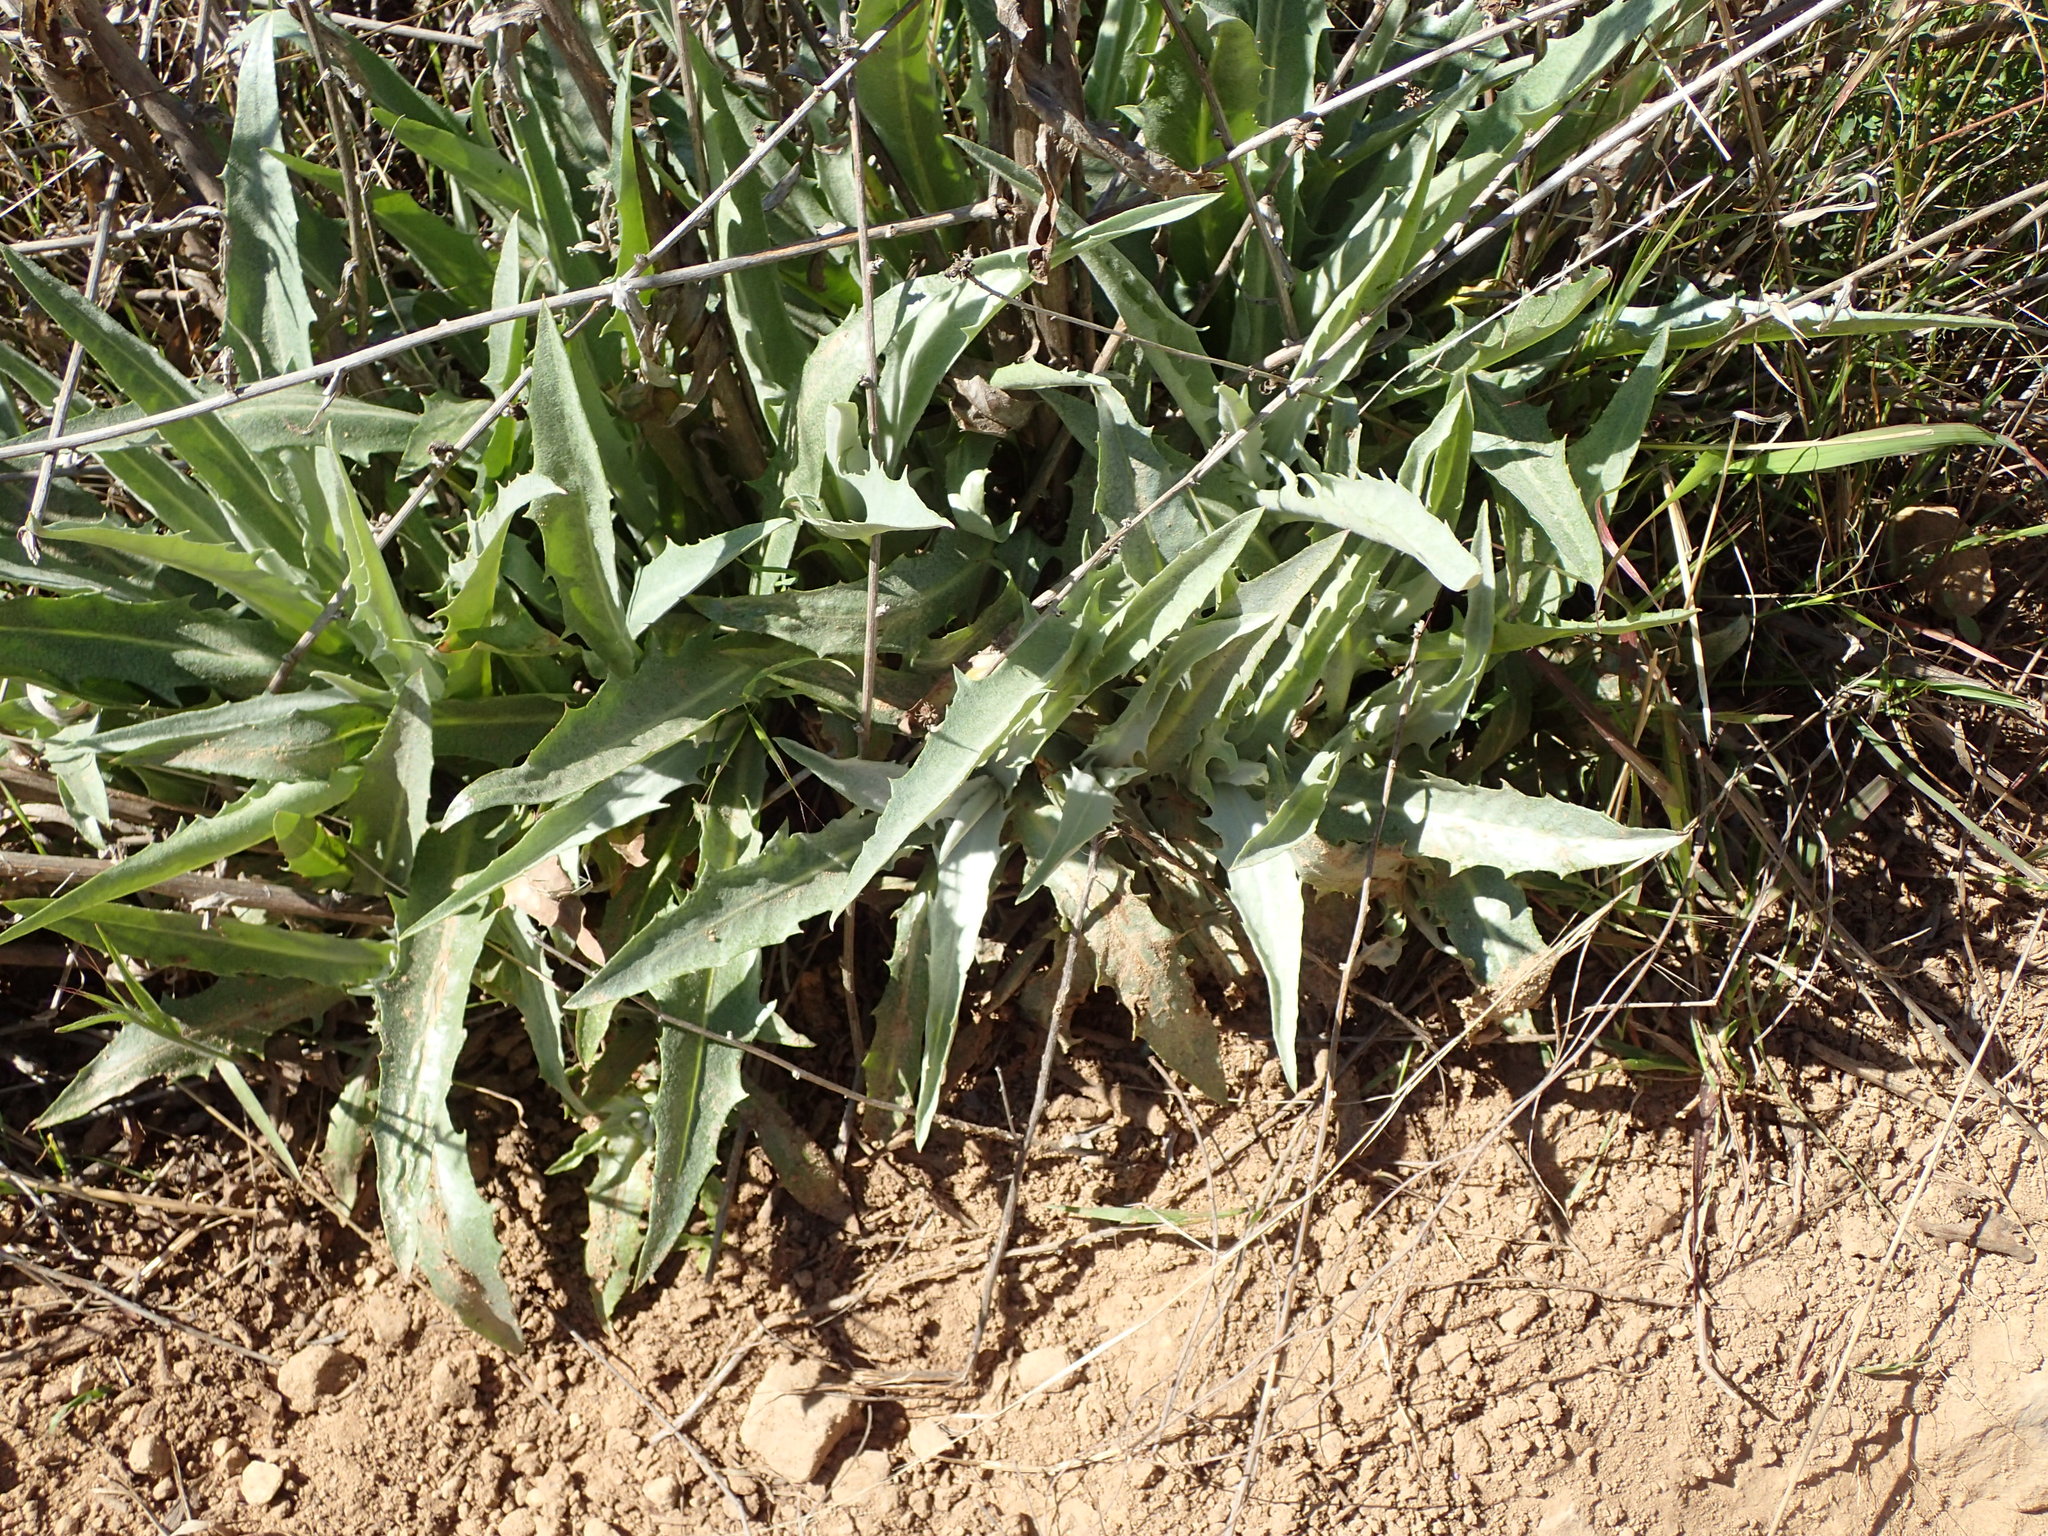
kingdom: Plantae
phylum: Tracheophyta
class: Magnoliopsida
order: Asterales
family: Asteraceae
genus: Stephanomeria
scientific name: Stephanomeria cichoriacea
